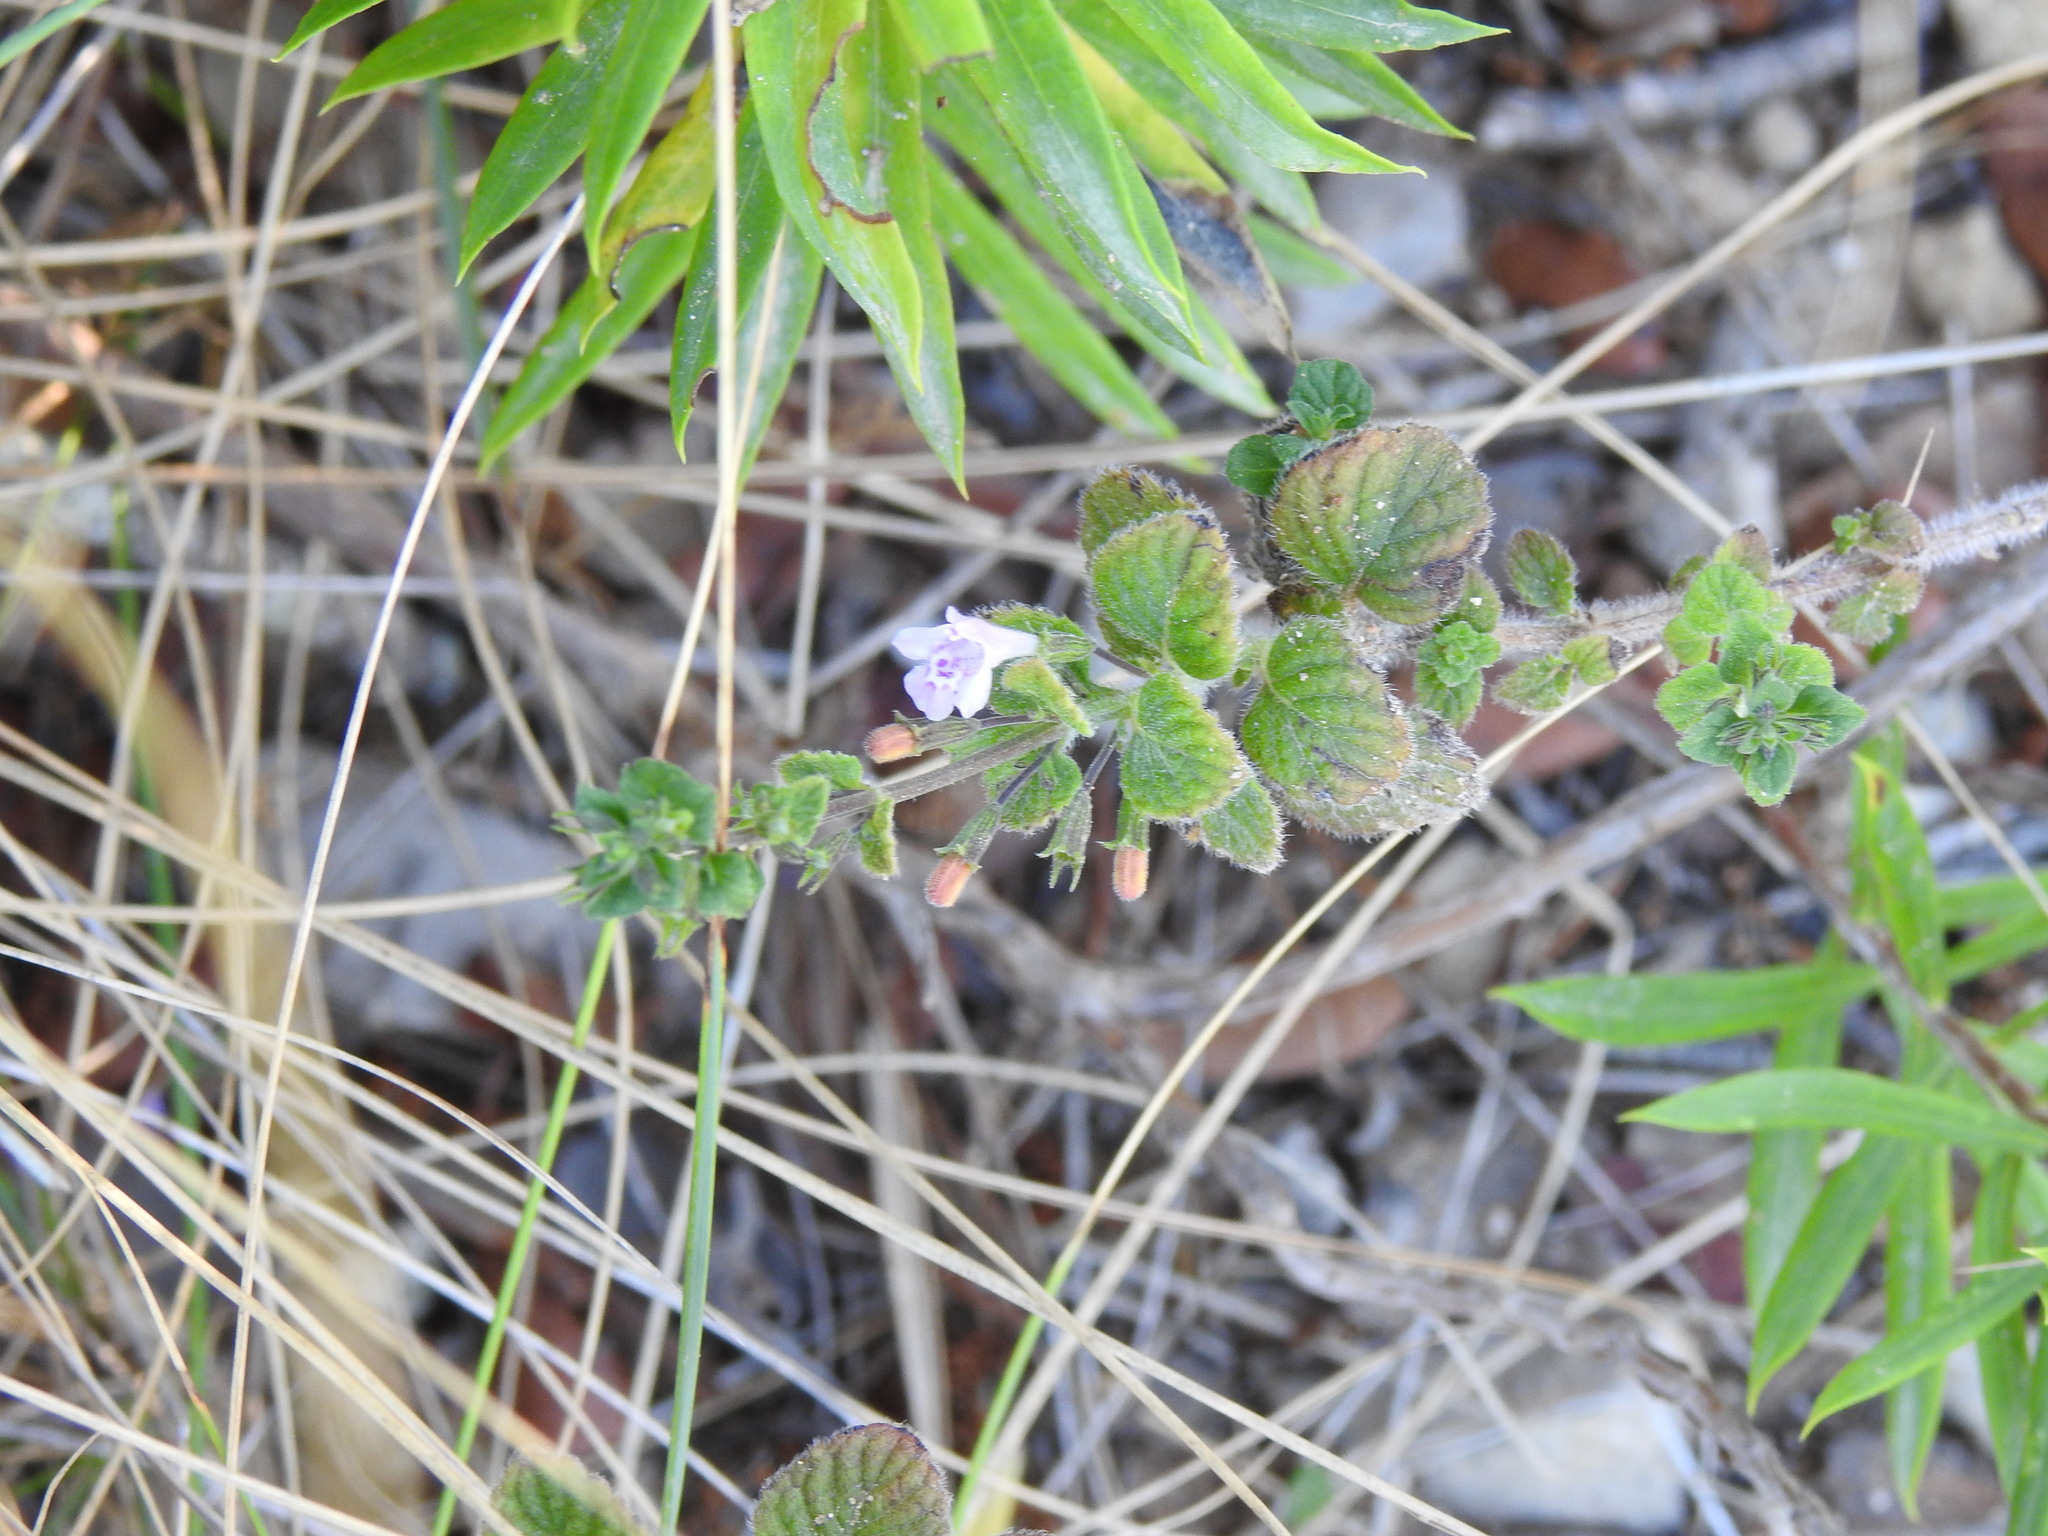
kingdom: Plantae
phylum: Tracheophyta
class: Magnoliopsida
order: Lamiales
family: Lamiaceae
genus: Clinopodium
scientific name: Clinopodium nepeta
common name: Lesser calamint
